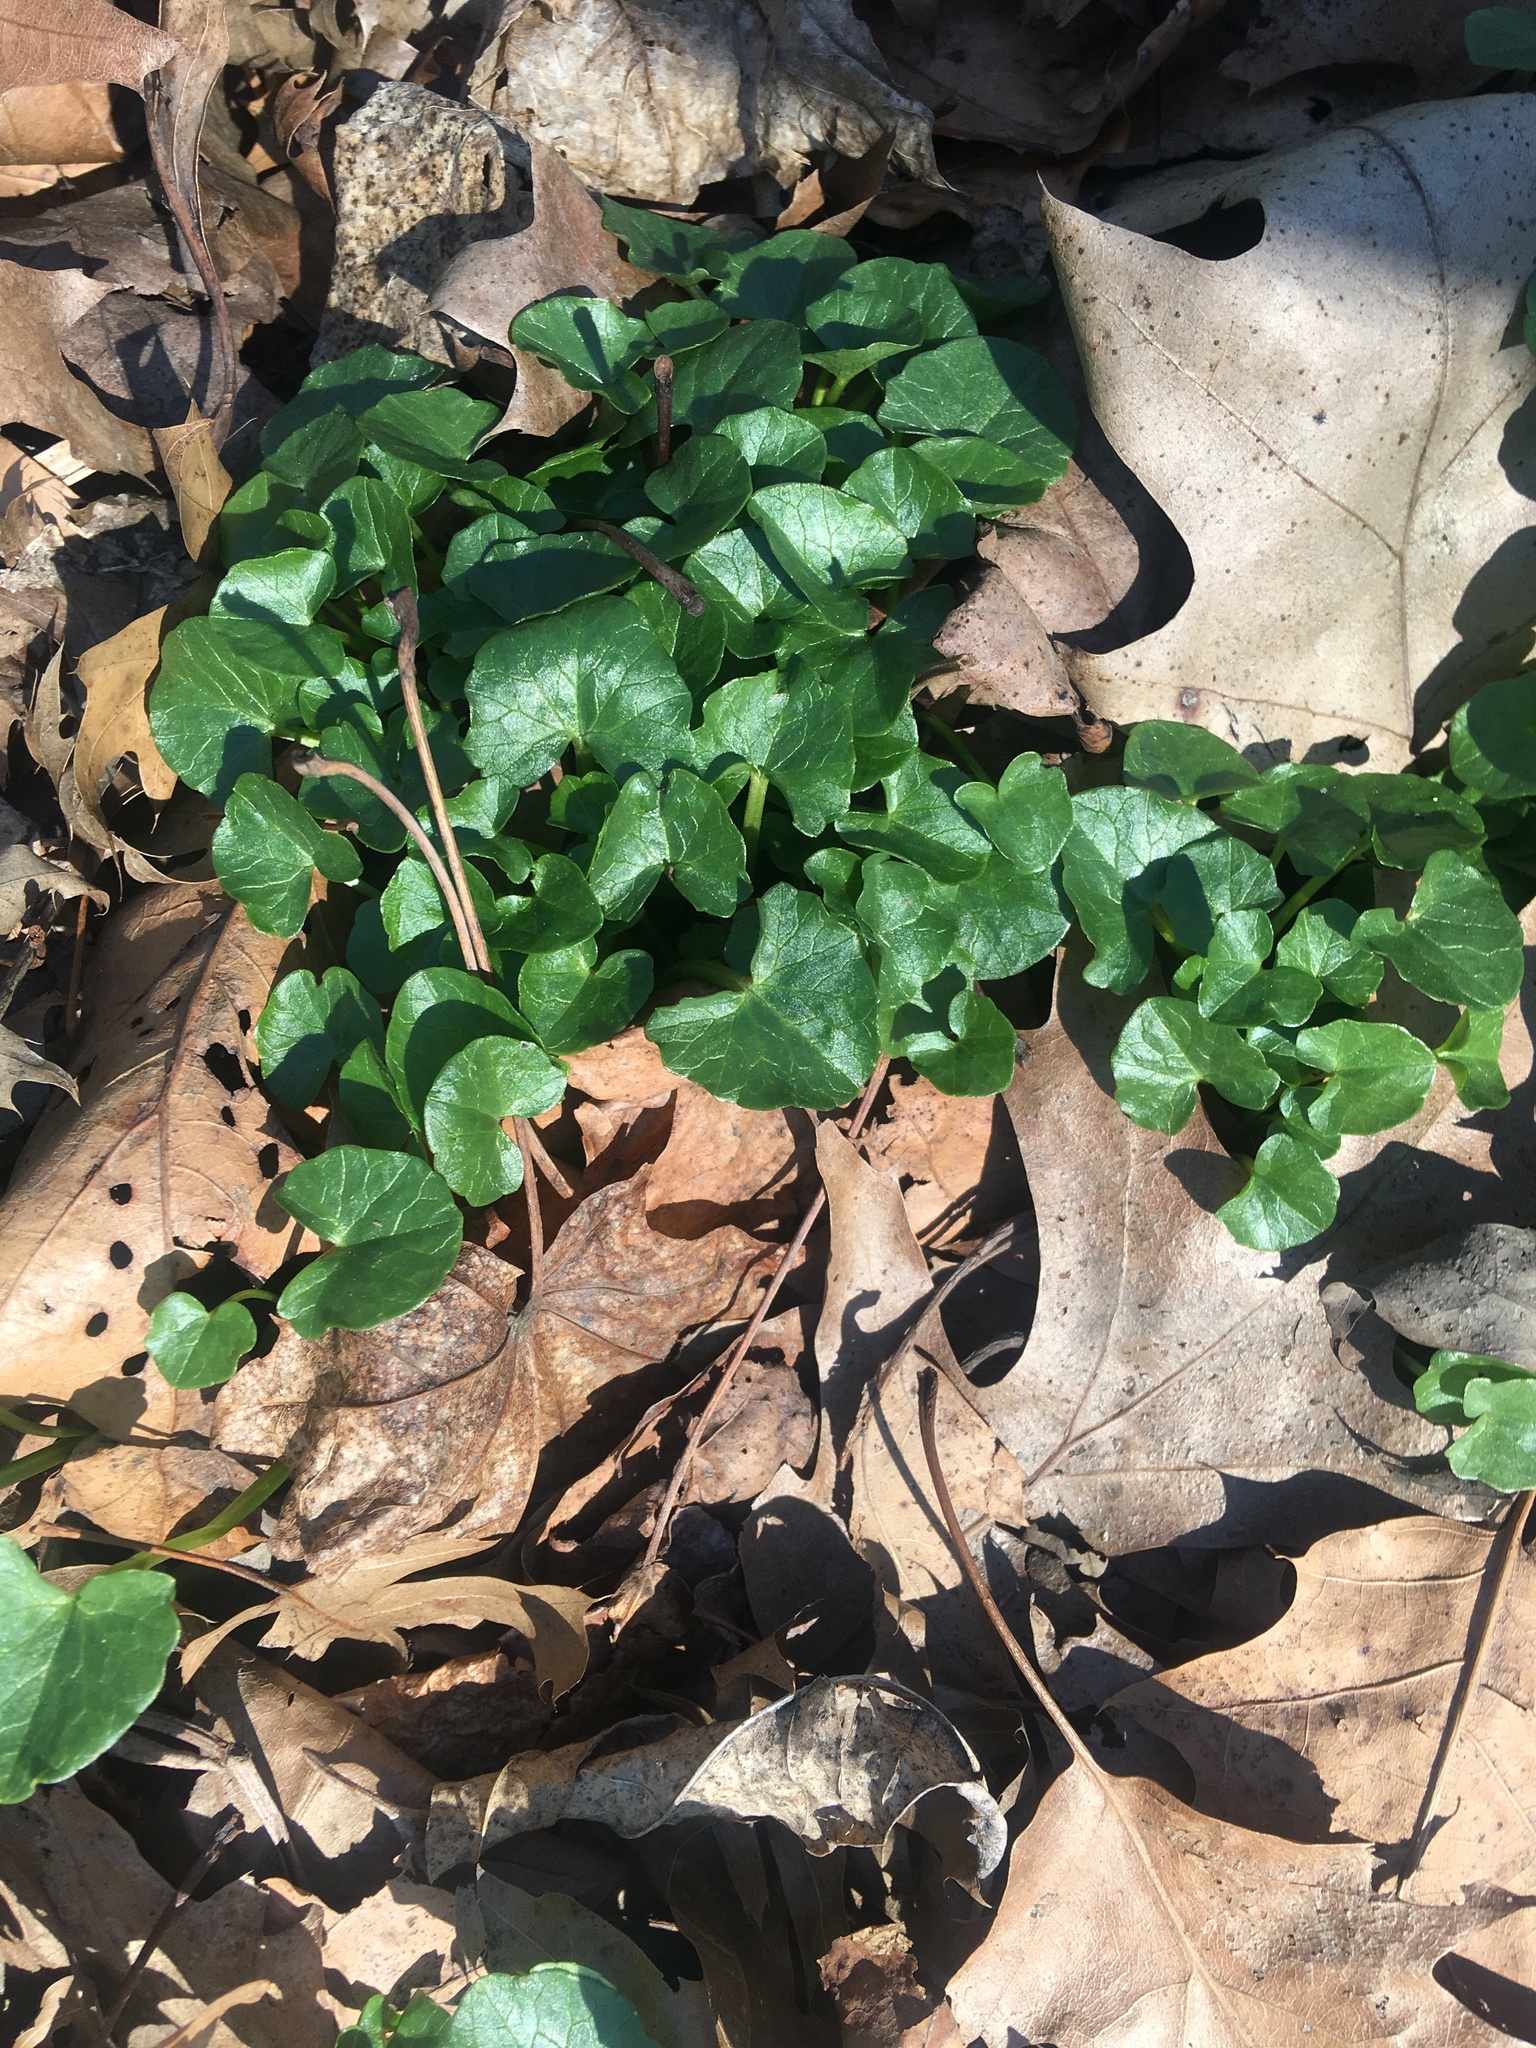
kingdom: Plantae
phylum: Tracheophyta
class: Magnoliopsida
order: Ranunculales
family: Ranunculaceae
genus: Ficaria
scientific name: Ficaria verna
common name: Lesser celandine
